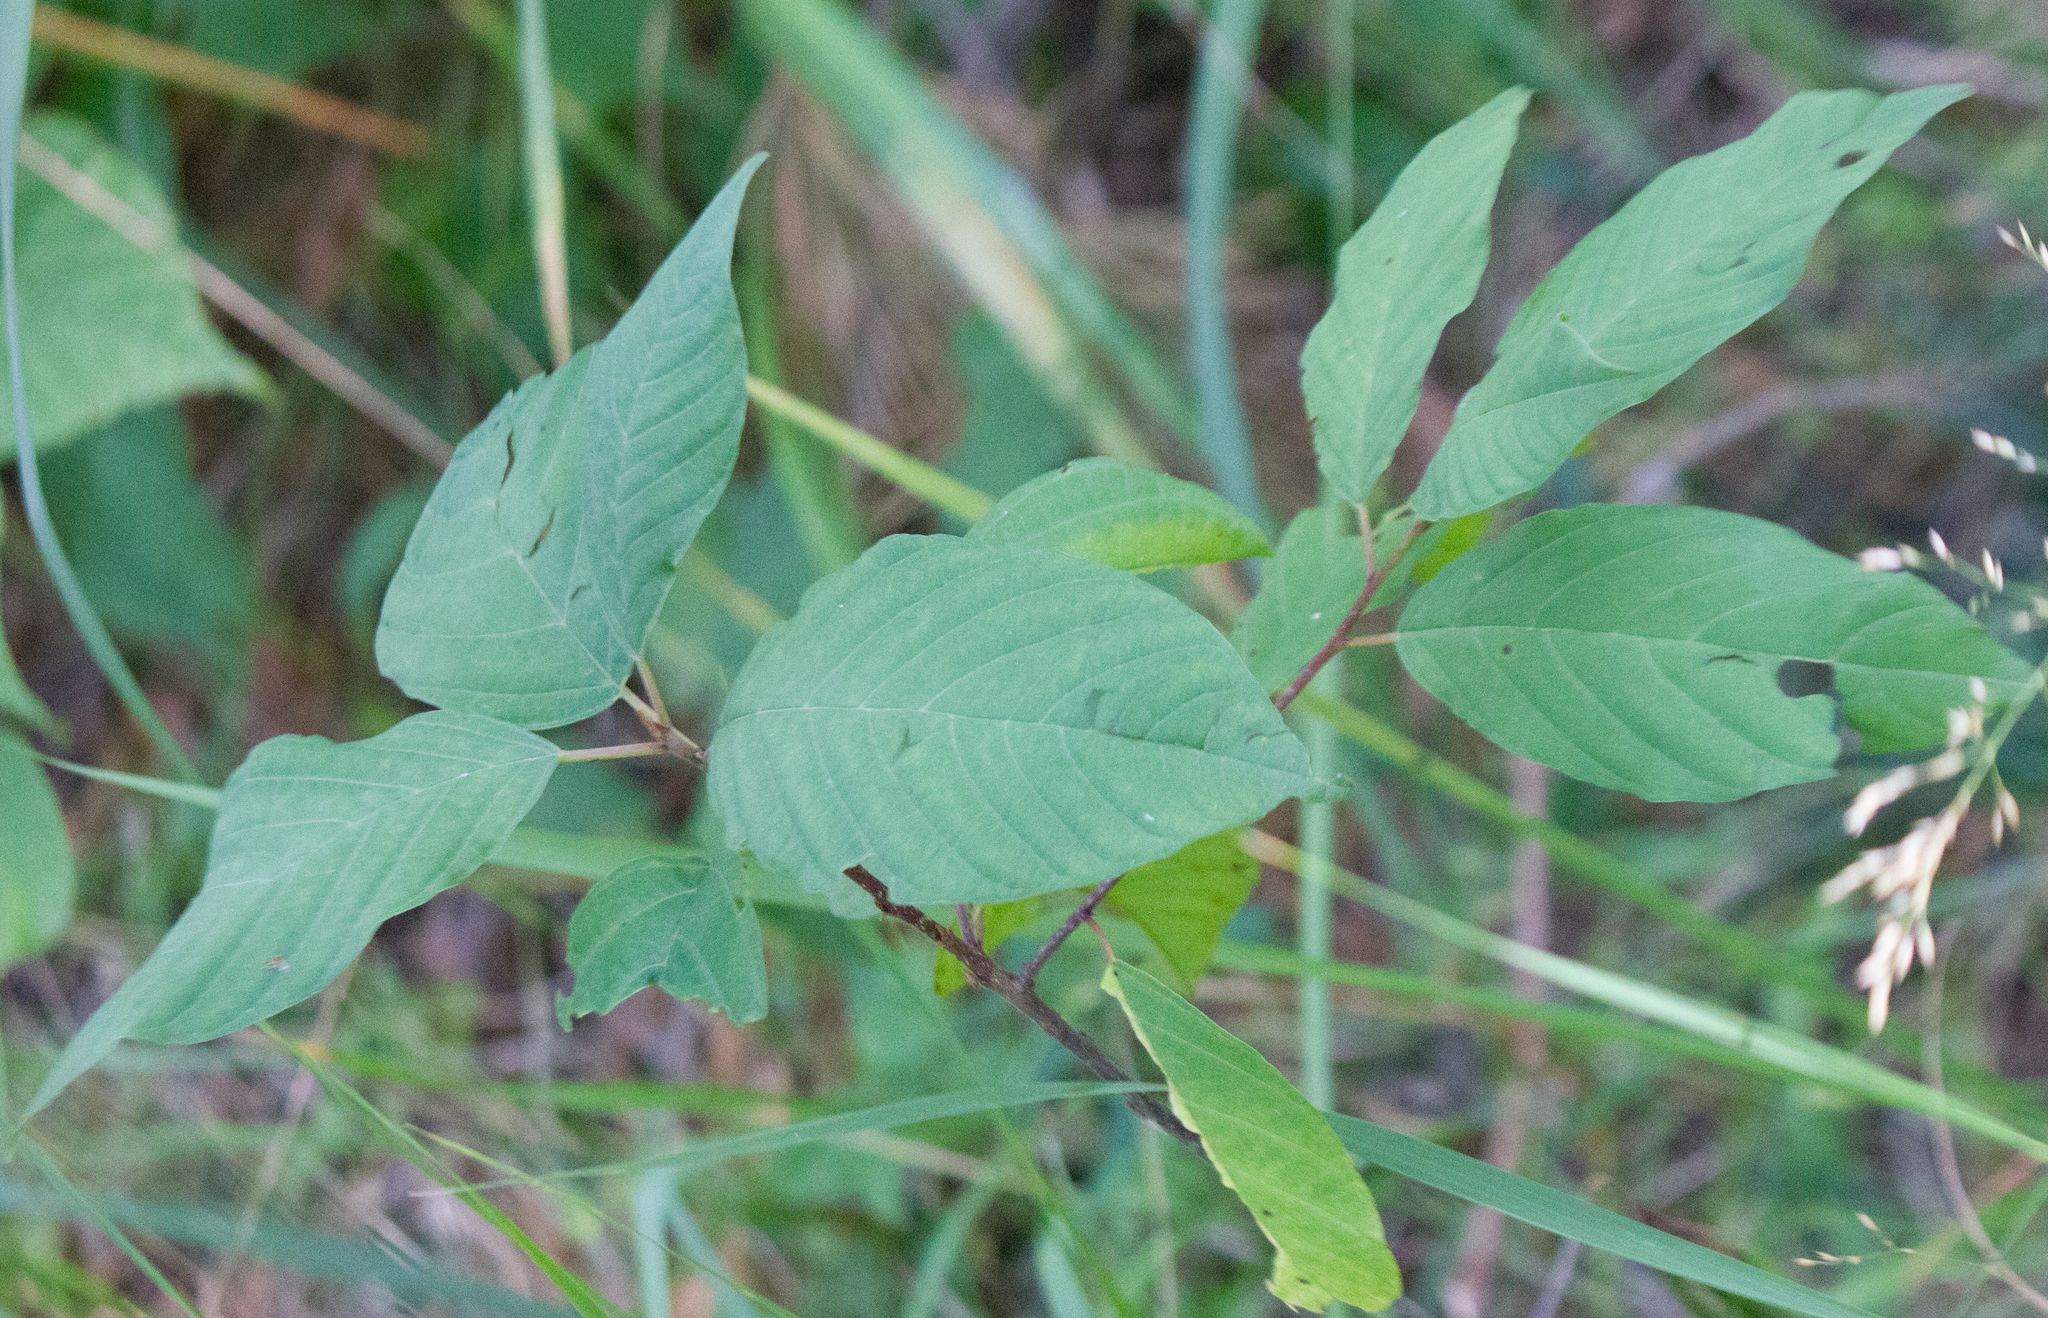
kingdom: Plantae
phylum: Tracheophyta
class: Magnoliopsida
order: Rosales
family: Rhamnaceae
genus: Frangula
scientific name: Frangula alnus
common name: Alder buckthorn
